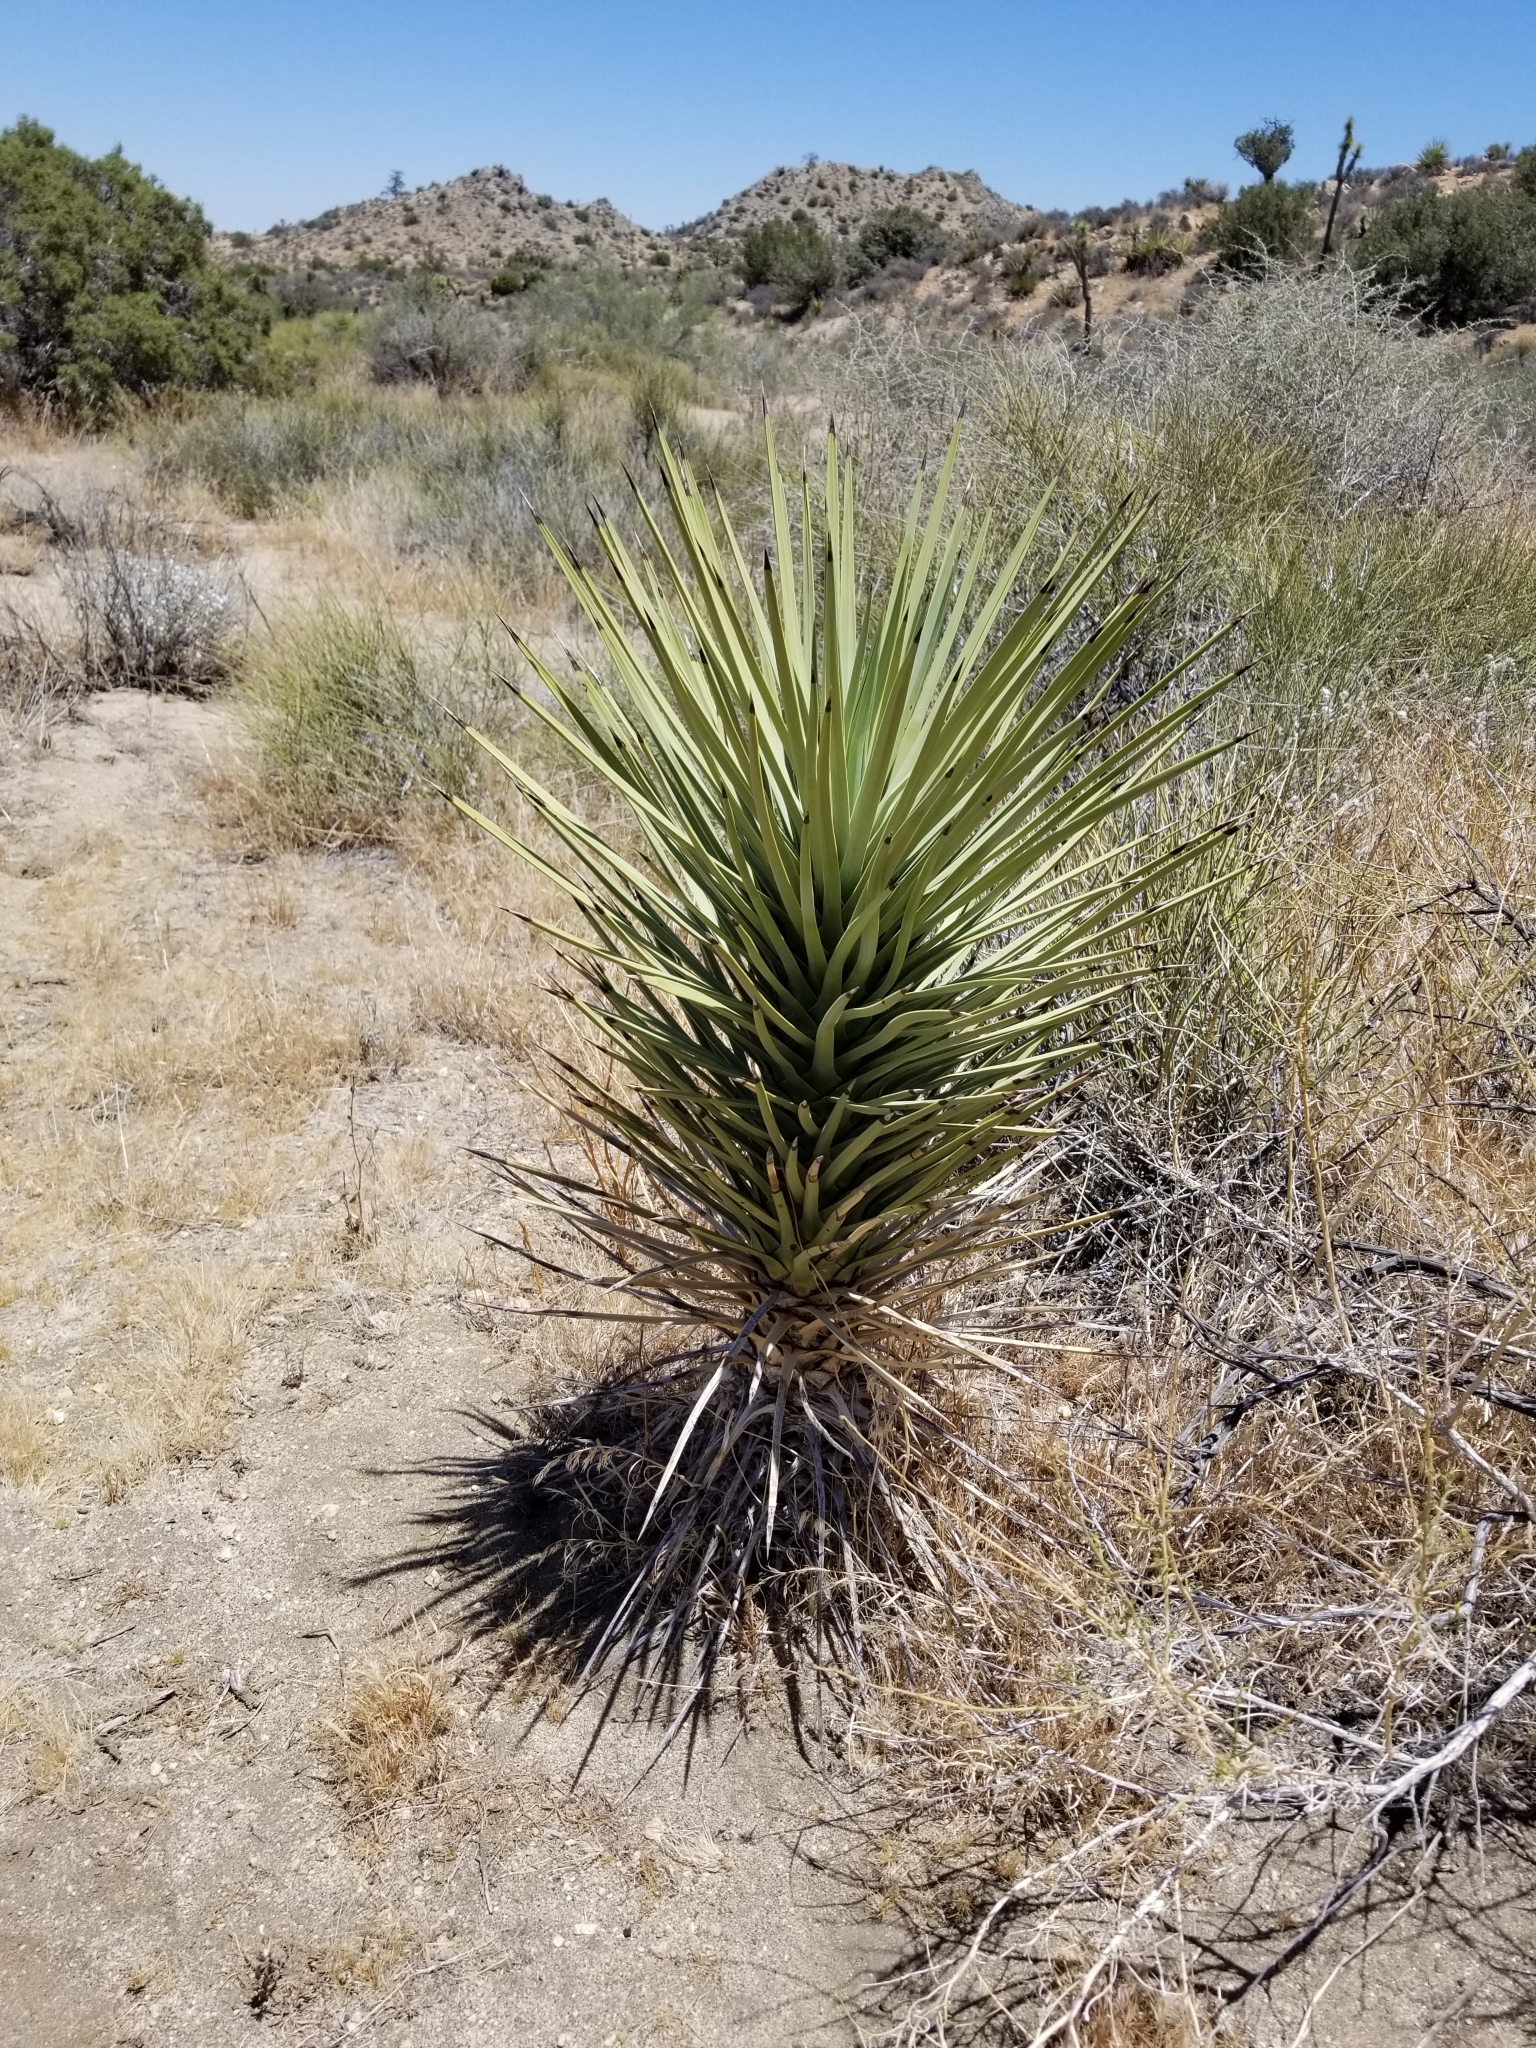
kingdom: Plantae
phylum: Tracheophyta
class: Liliopsida
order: Asparagales
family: Asparagaceae
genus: Yucca
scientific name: Yucca brevifolia
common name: Joshua tree
